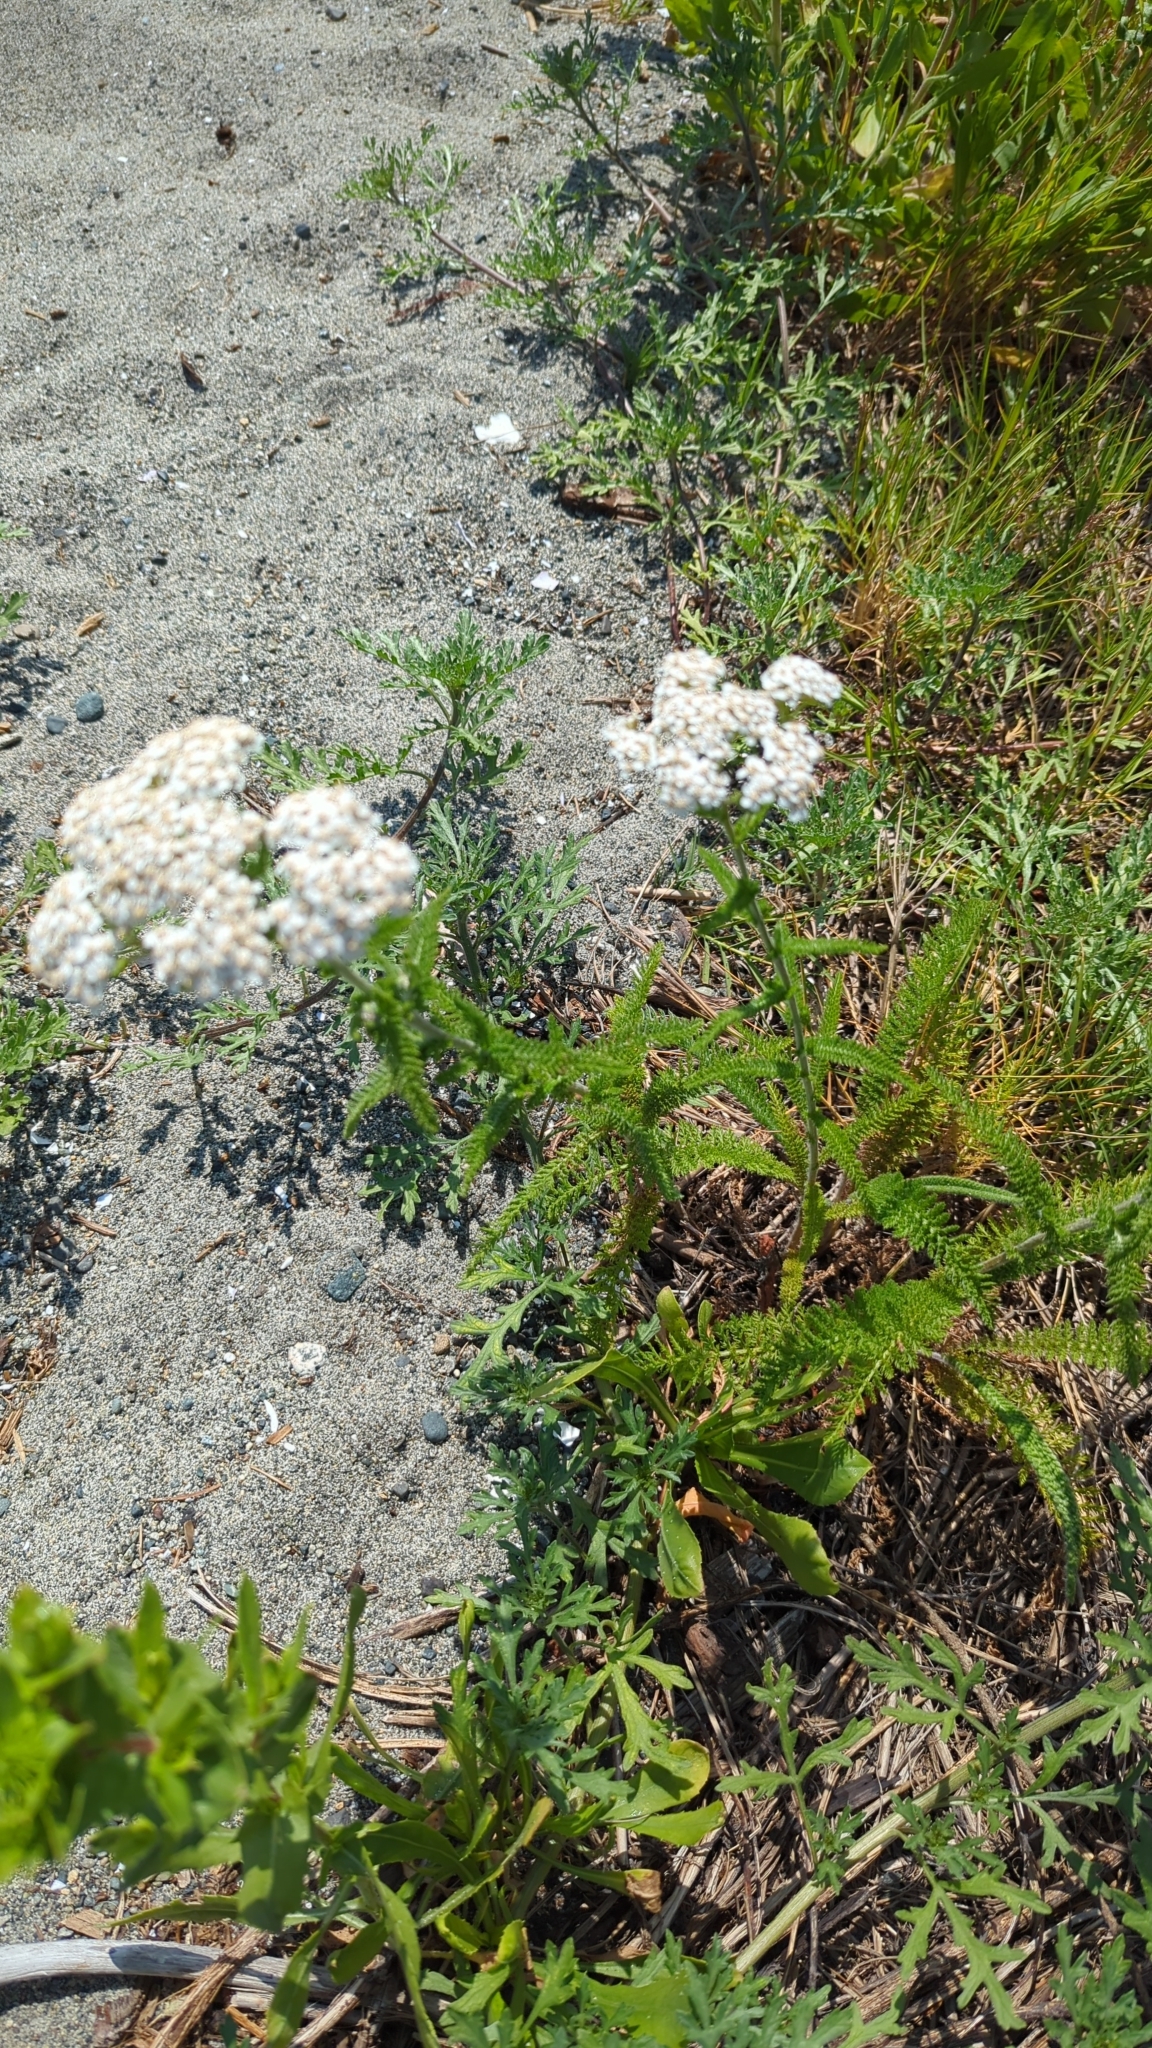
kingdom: Plantae
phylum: Tracheophyta
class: Magnoliopsida
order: Asterales
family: Asteraceae
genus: Achillea
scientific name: Achillea millefolium
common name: Yarrow
